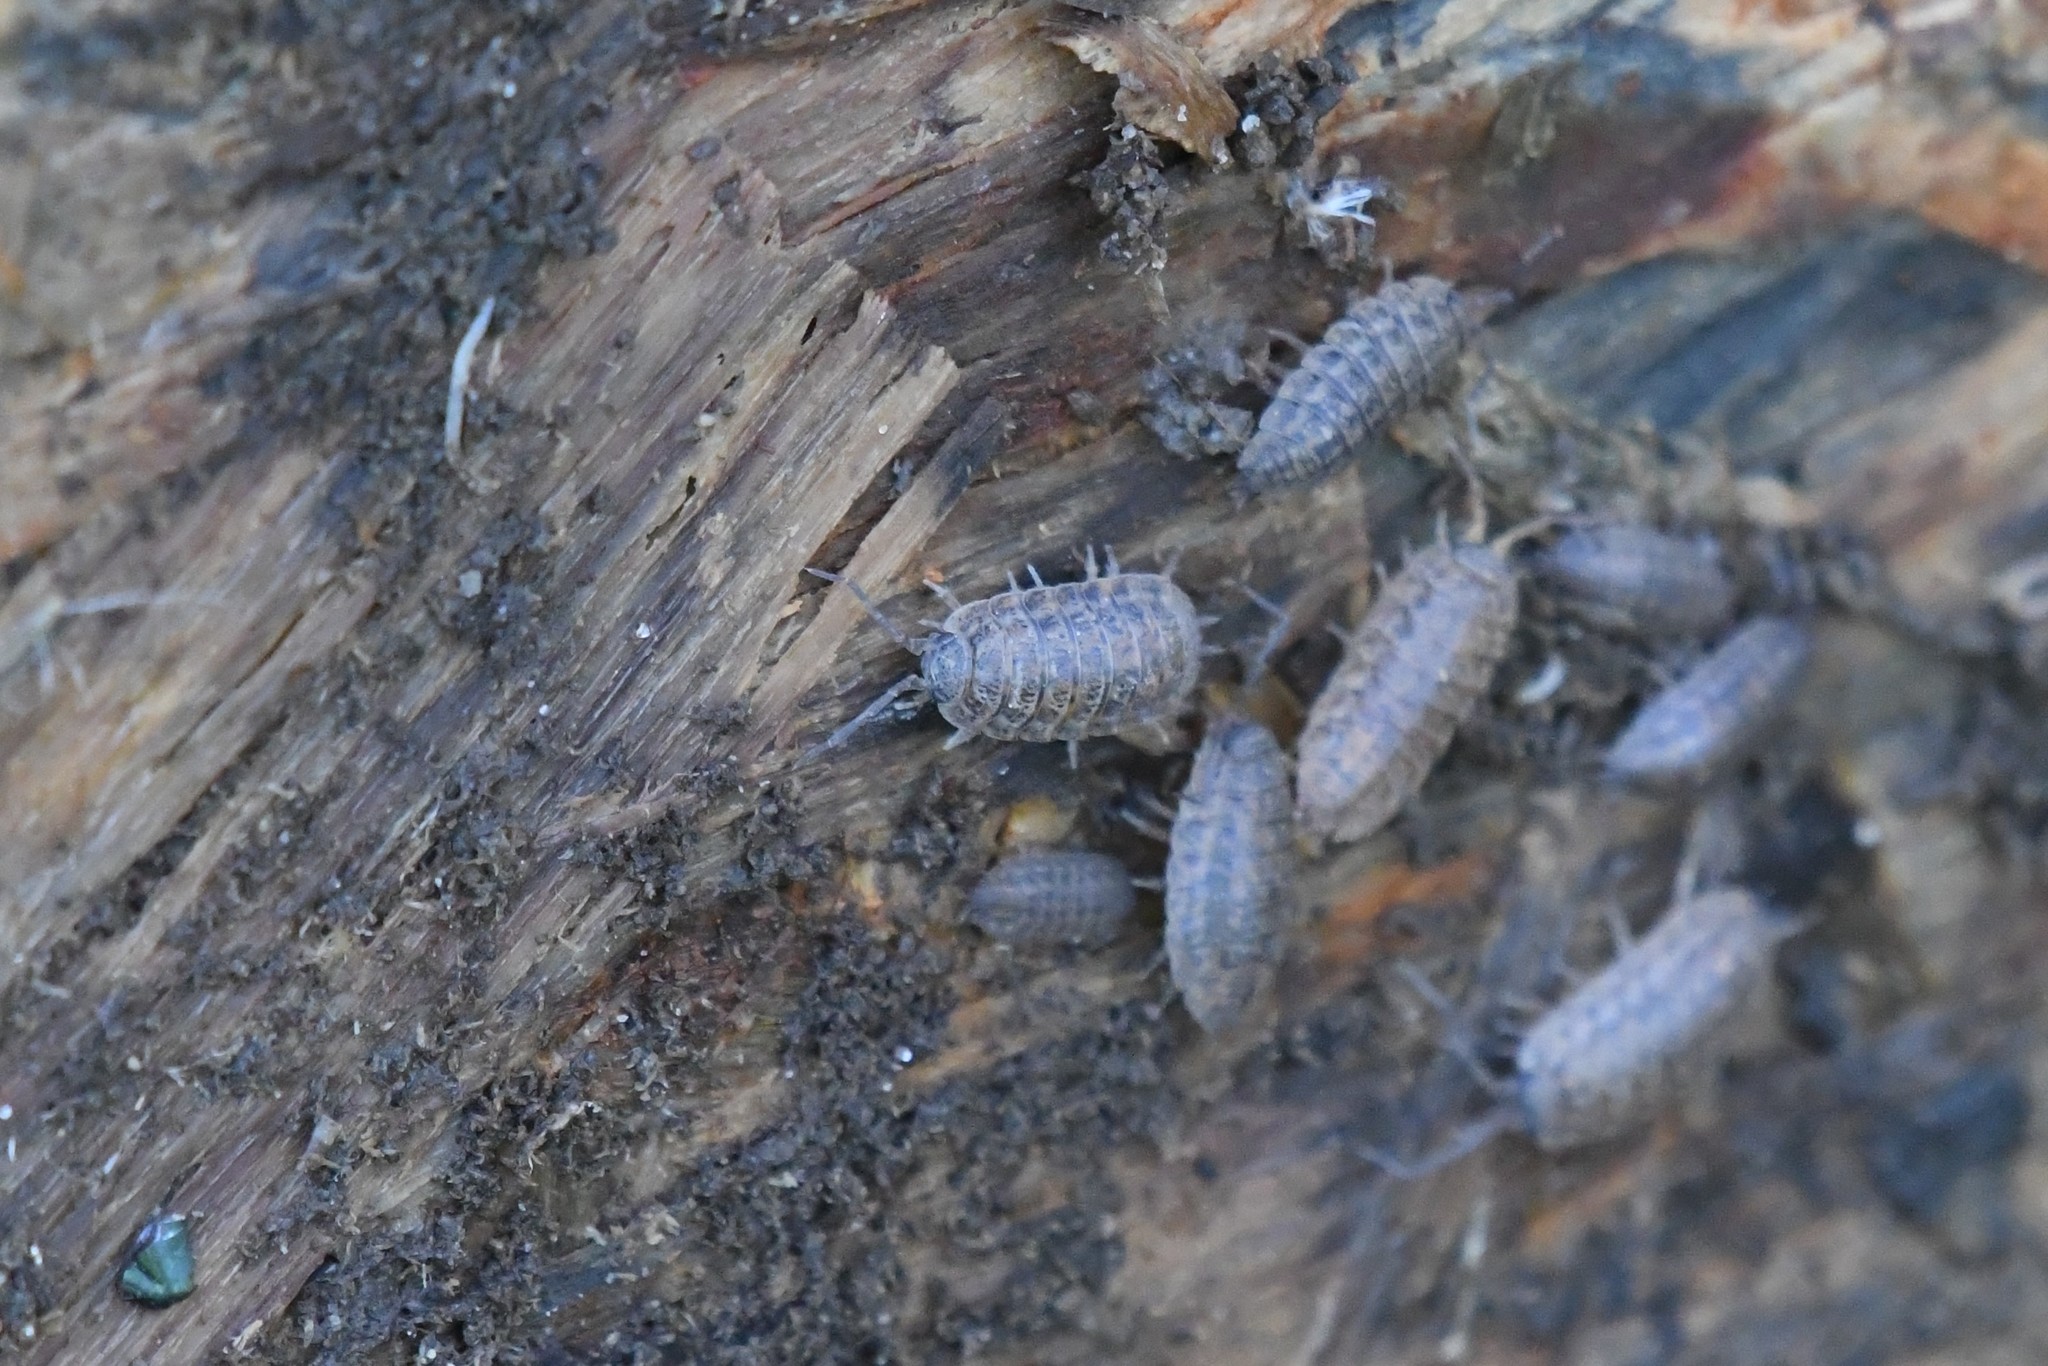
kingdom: Animalia
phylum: Arthropoda
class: Malacostraca
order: Isopoda
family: Trachelipodidae
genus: Trachelipus
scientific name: Trachelipus rathkii
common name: Isopod
